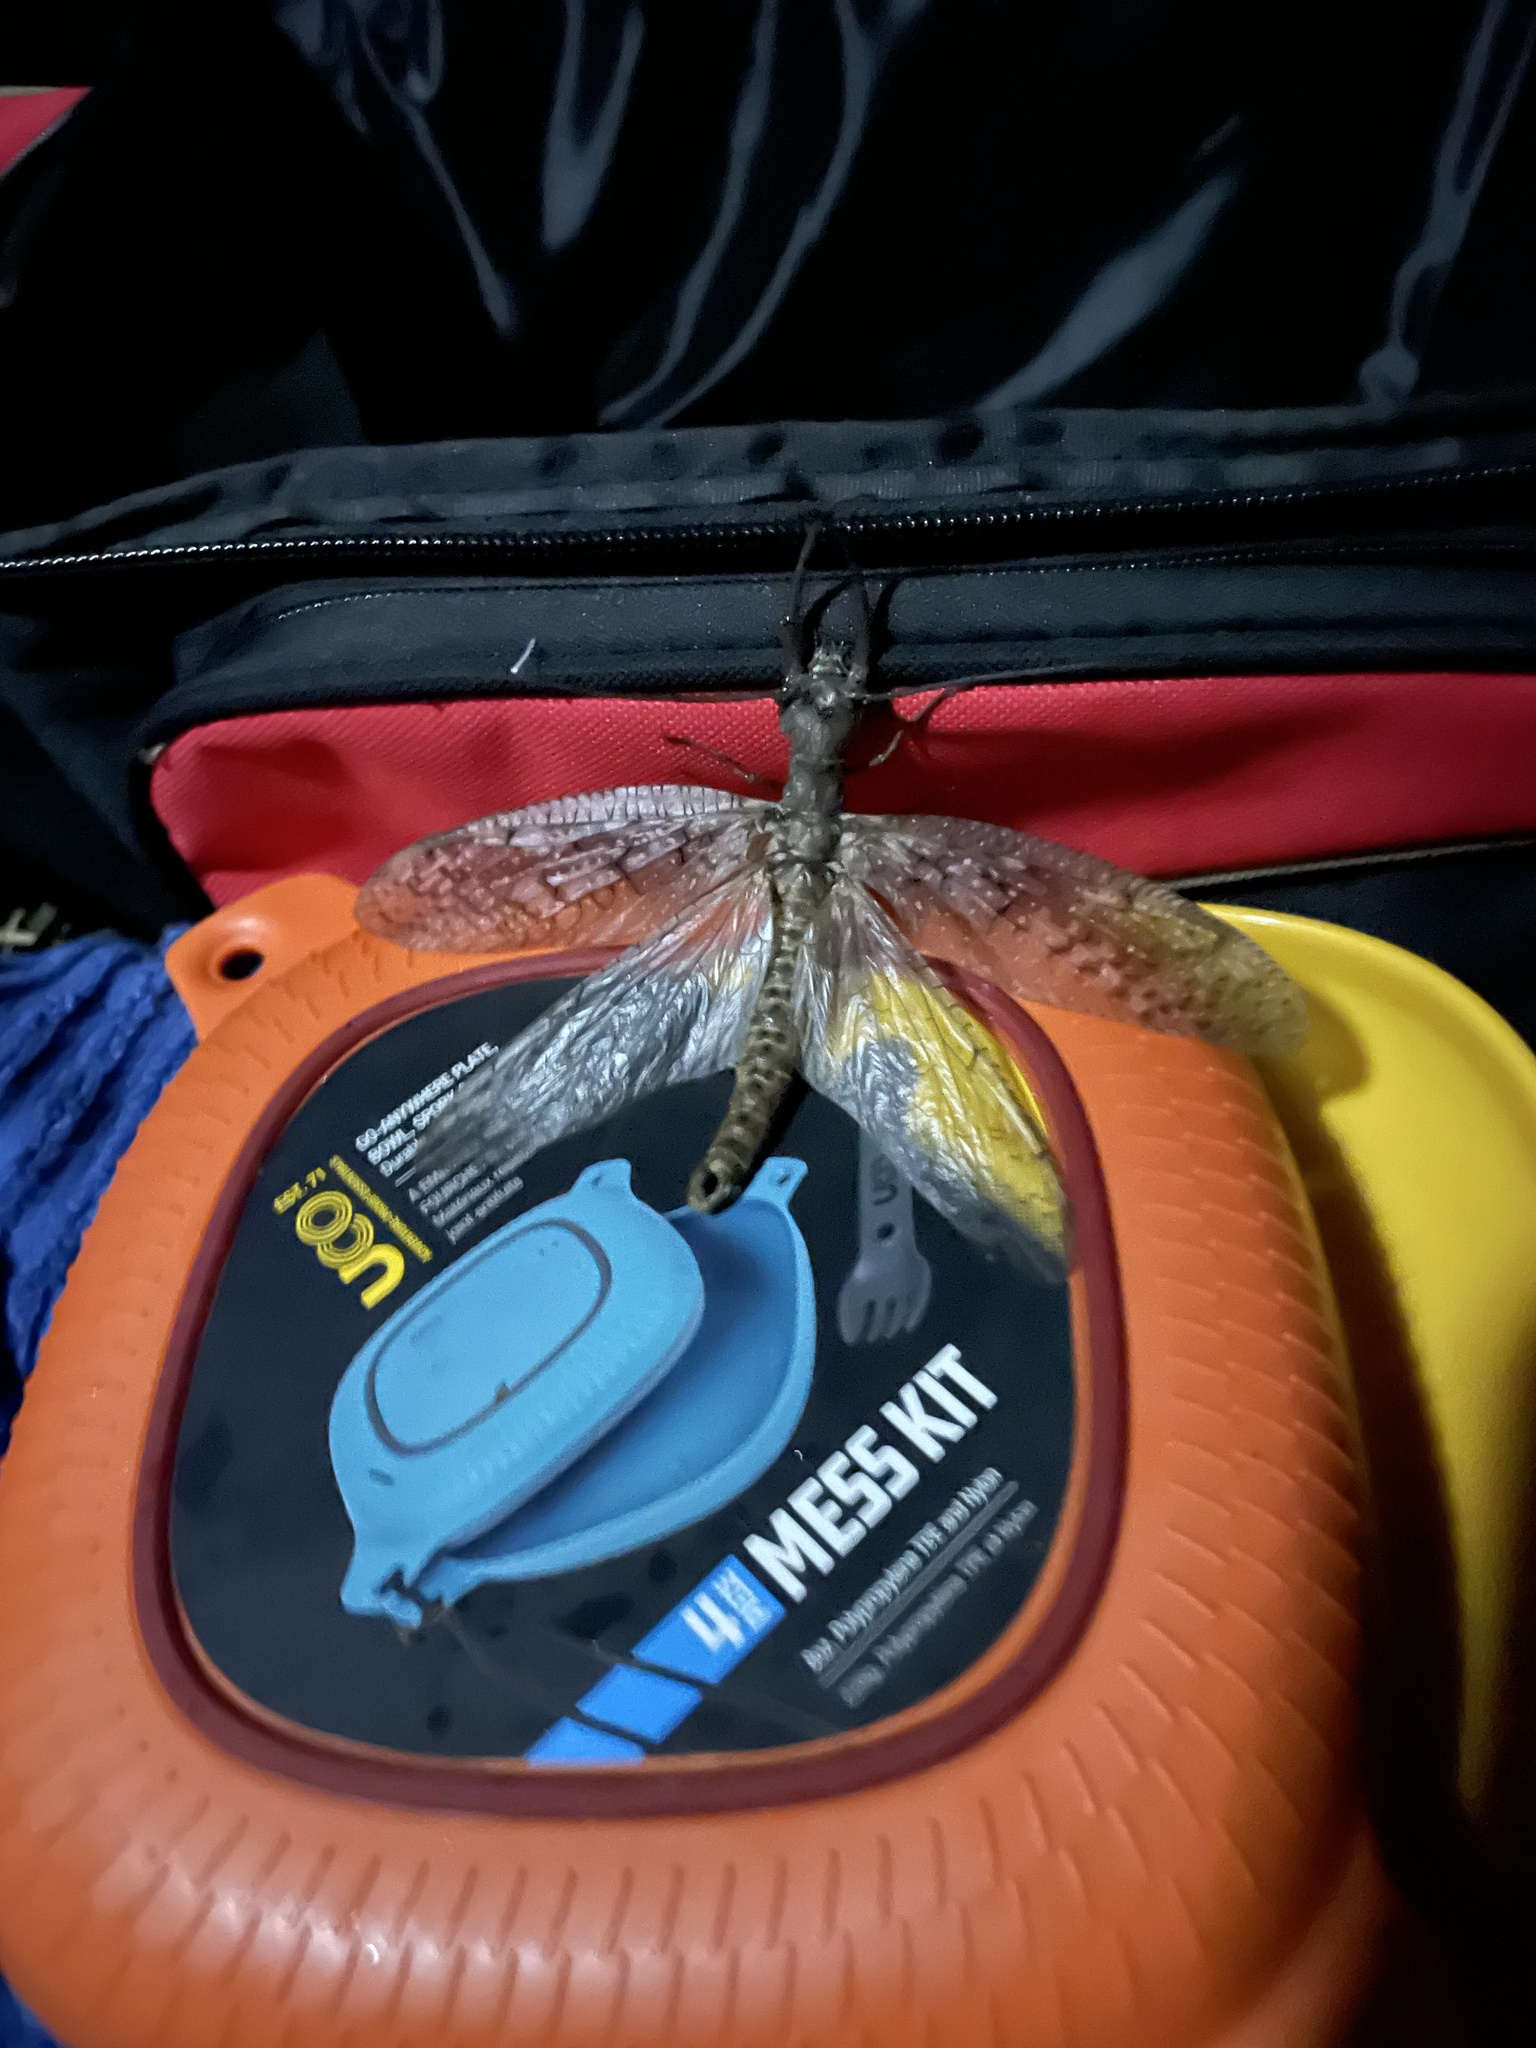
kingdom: Animalia
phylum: Arthropoda
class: Insecta
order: Megaloptera
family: Corydalidae
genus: Corydalus
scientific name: Corydalus cornutus
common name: Dobsonfly
